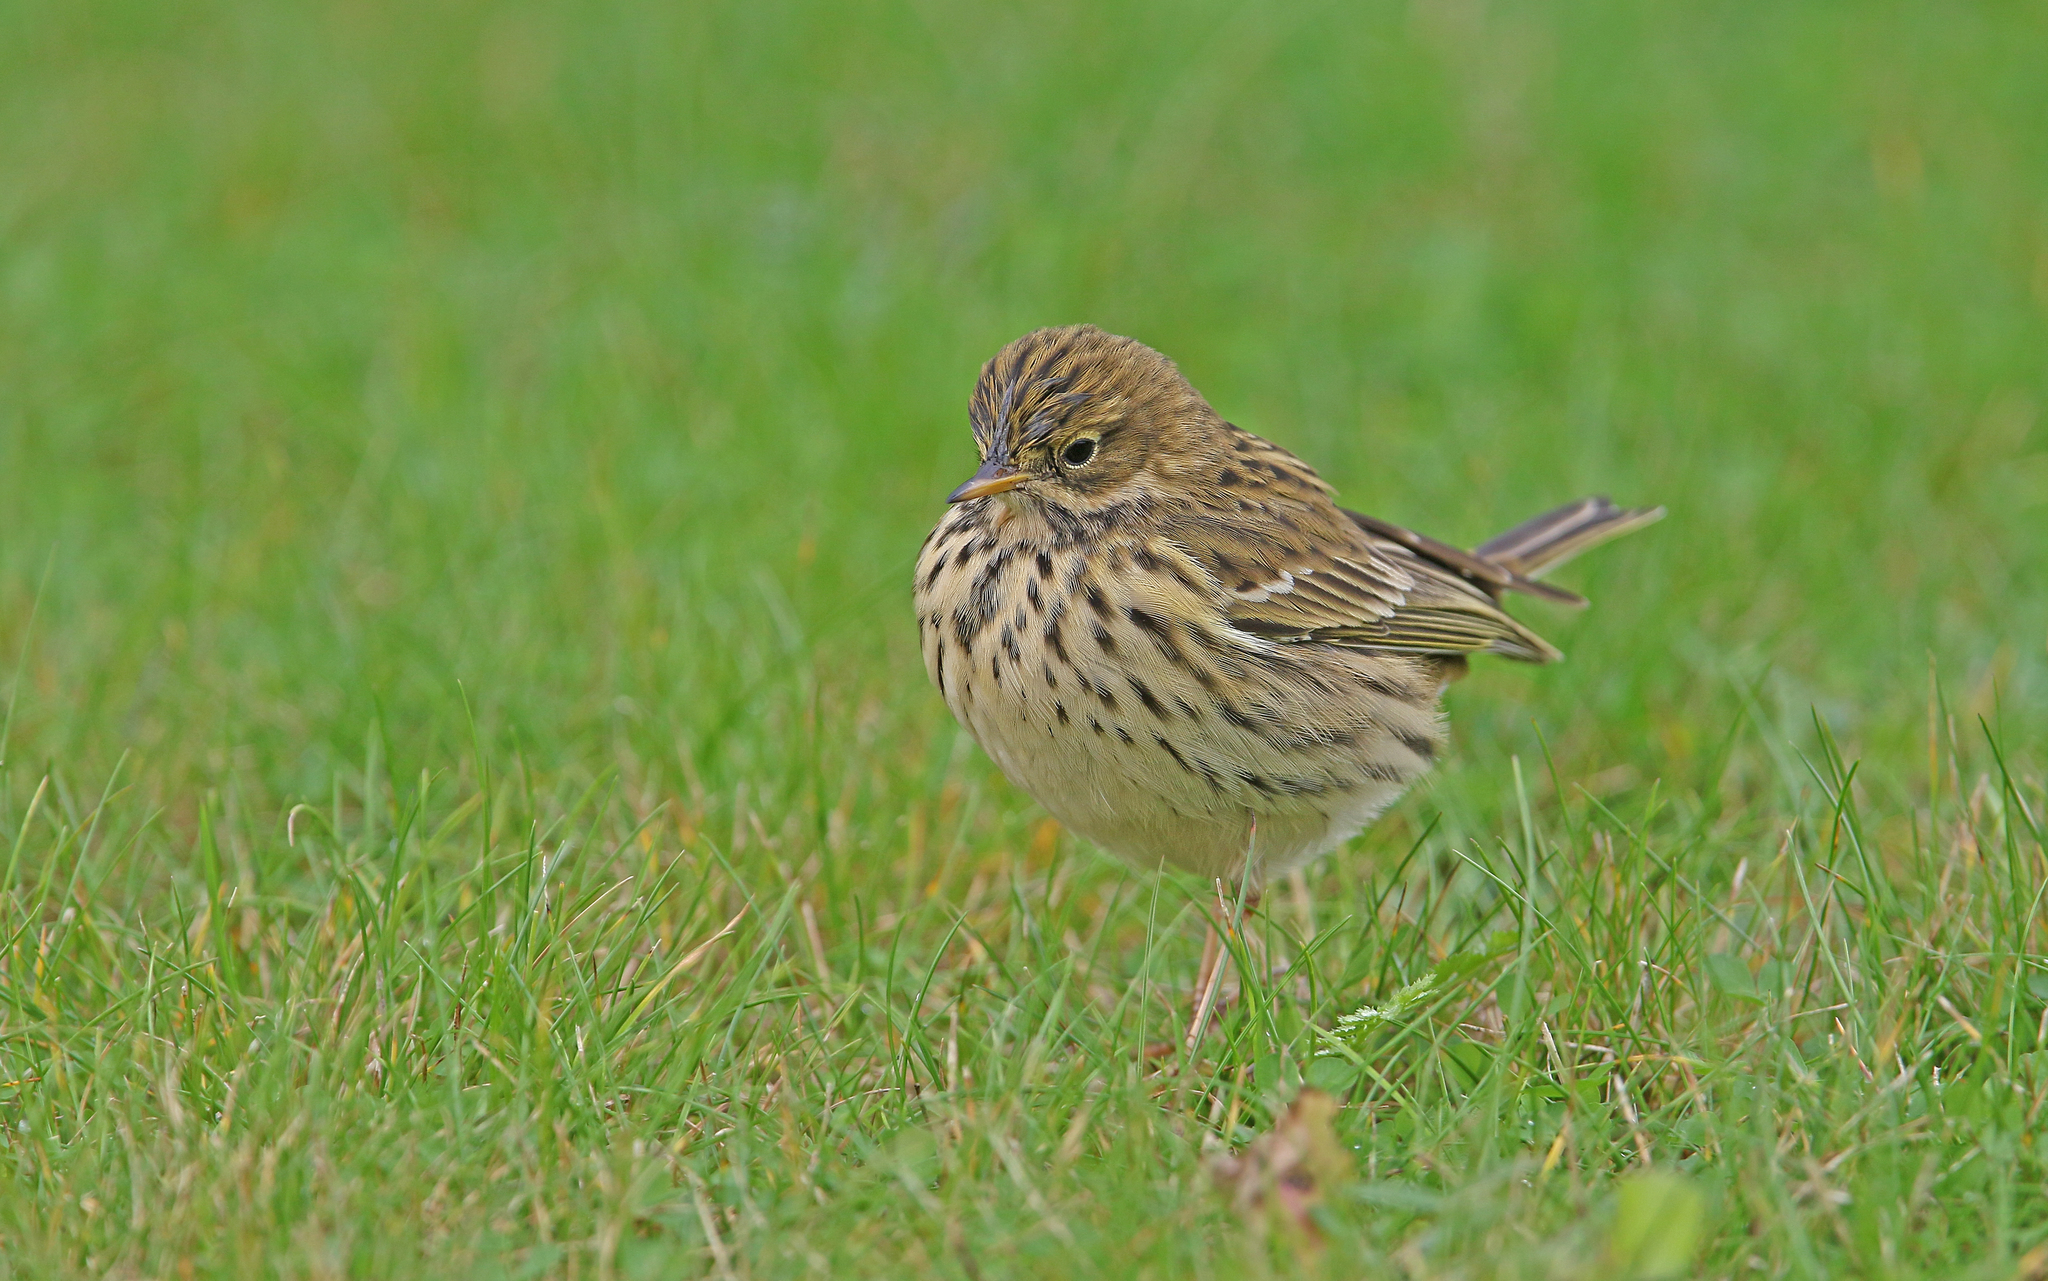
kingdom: Animalia
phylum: Chordata
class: Aves
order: Passeriformes
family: Motacillidae
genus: Anthus
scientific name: Anthus pratensis
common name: Meadow pipit
